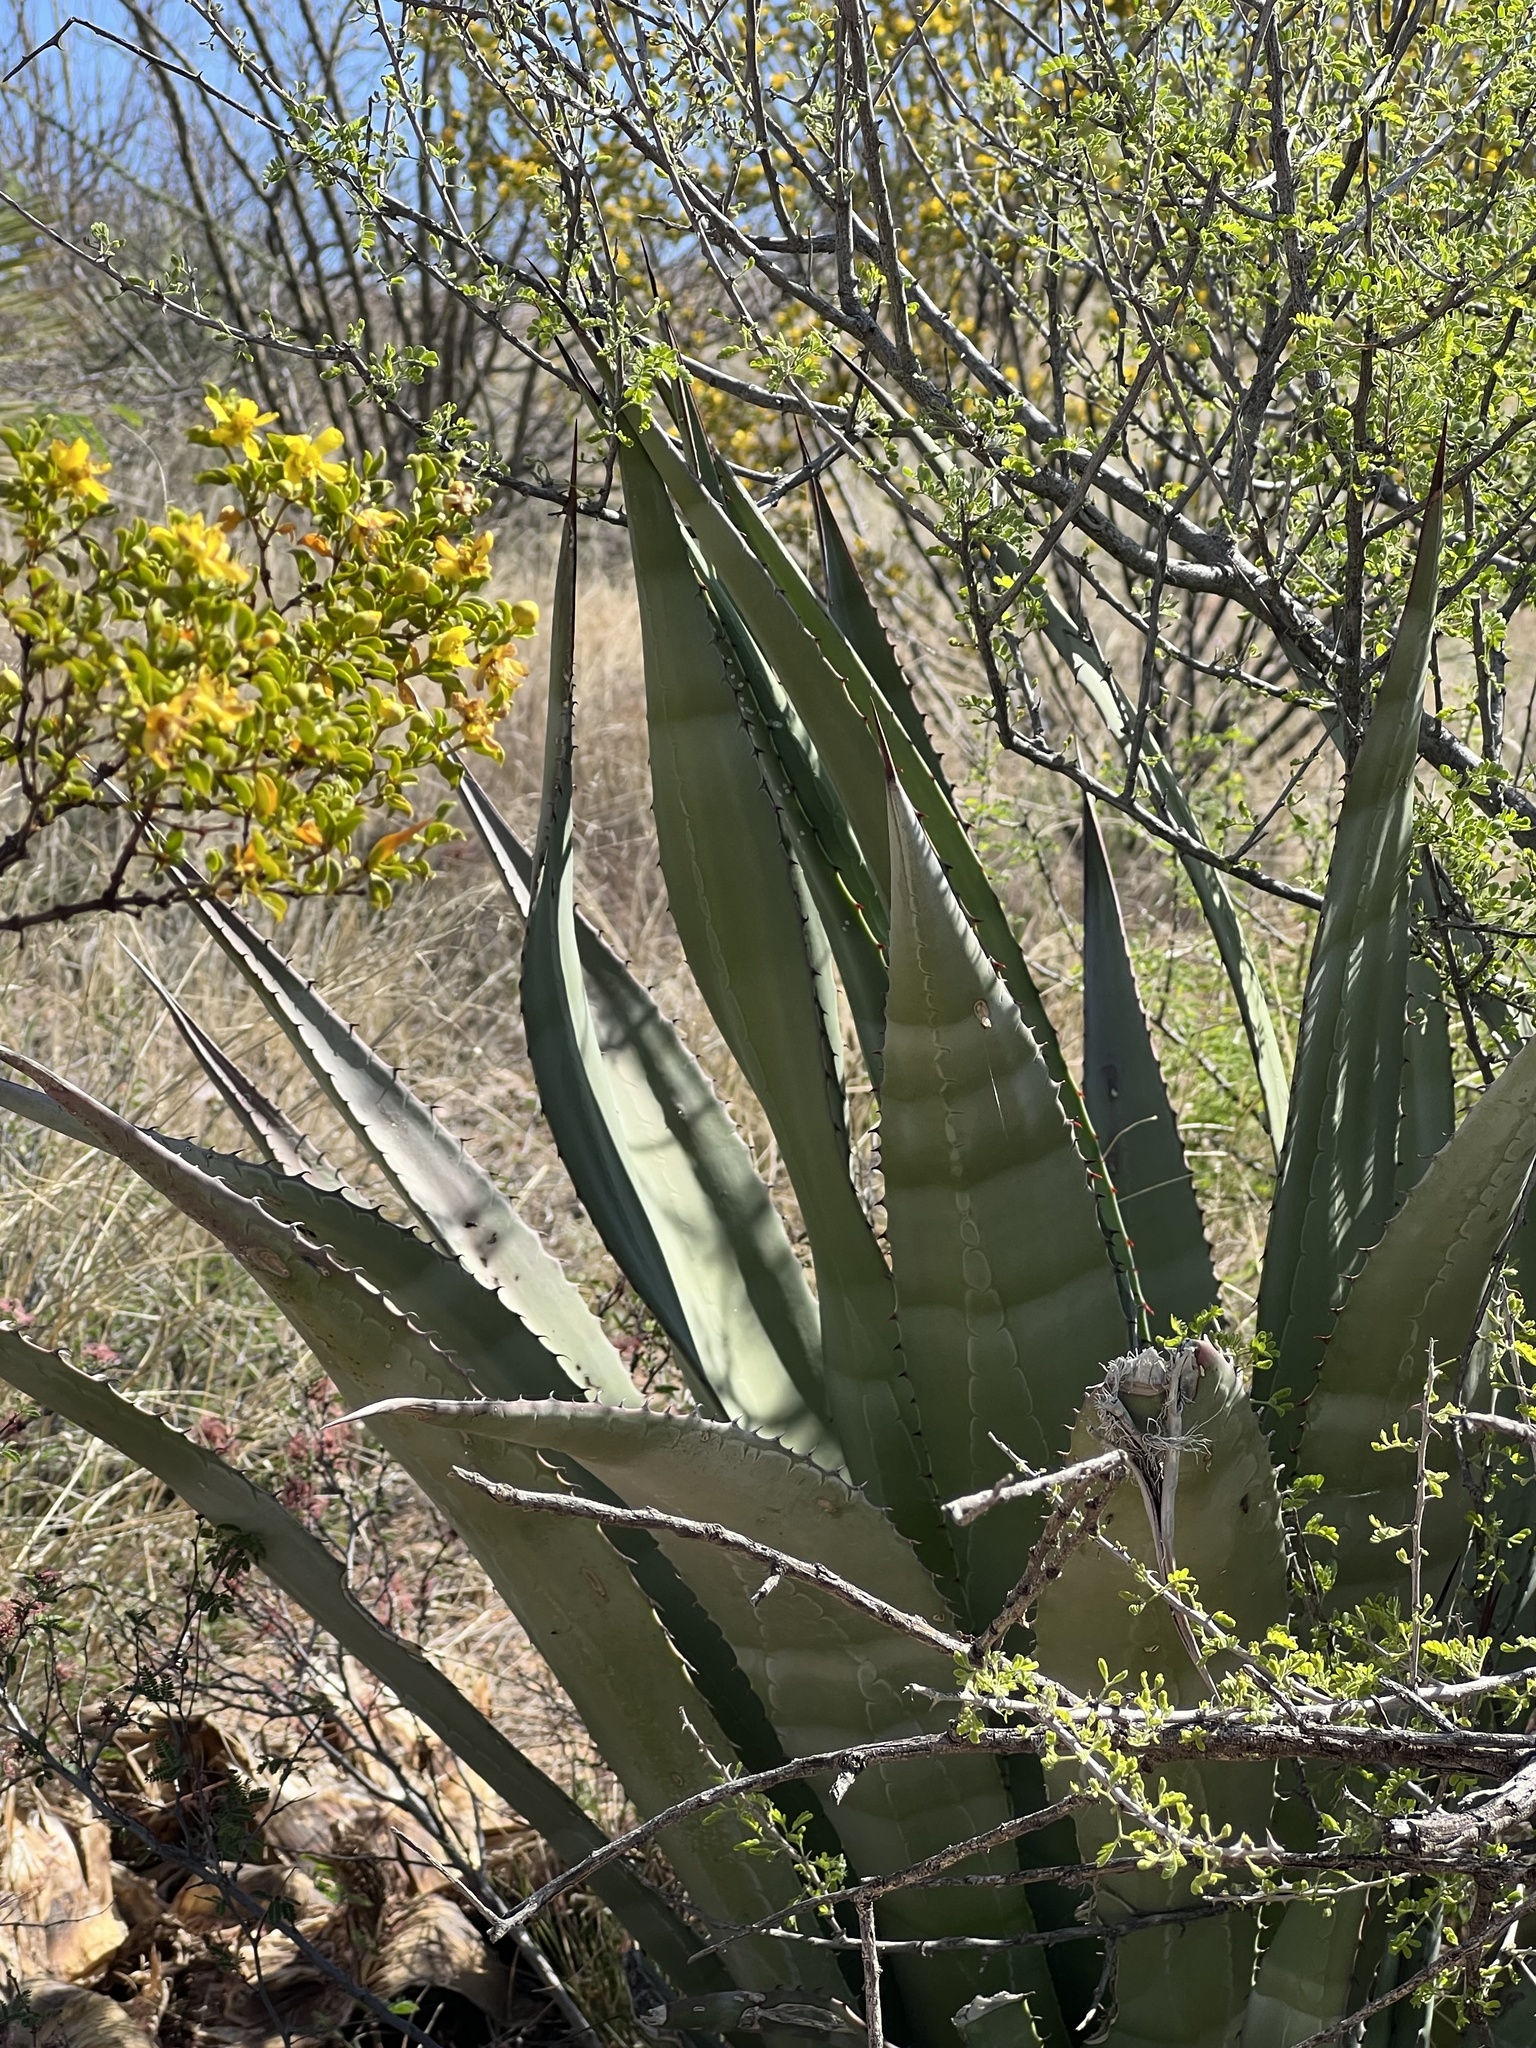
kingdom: Plantae
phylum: Tracheophyta
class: Liliopsida
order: Asparagales
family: Asparagaceae
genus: Agave
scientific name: Agave palmeri
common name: Palmer agave
